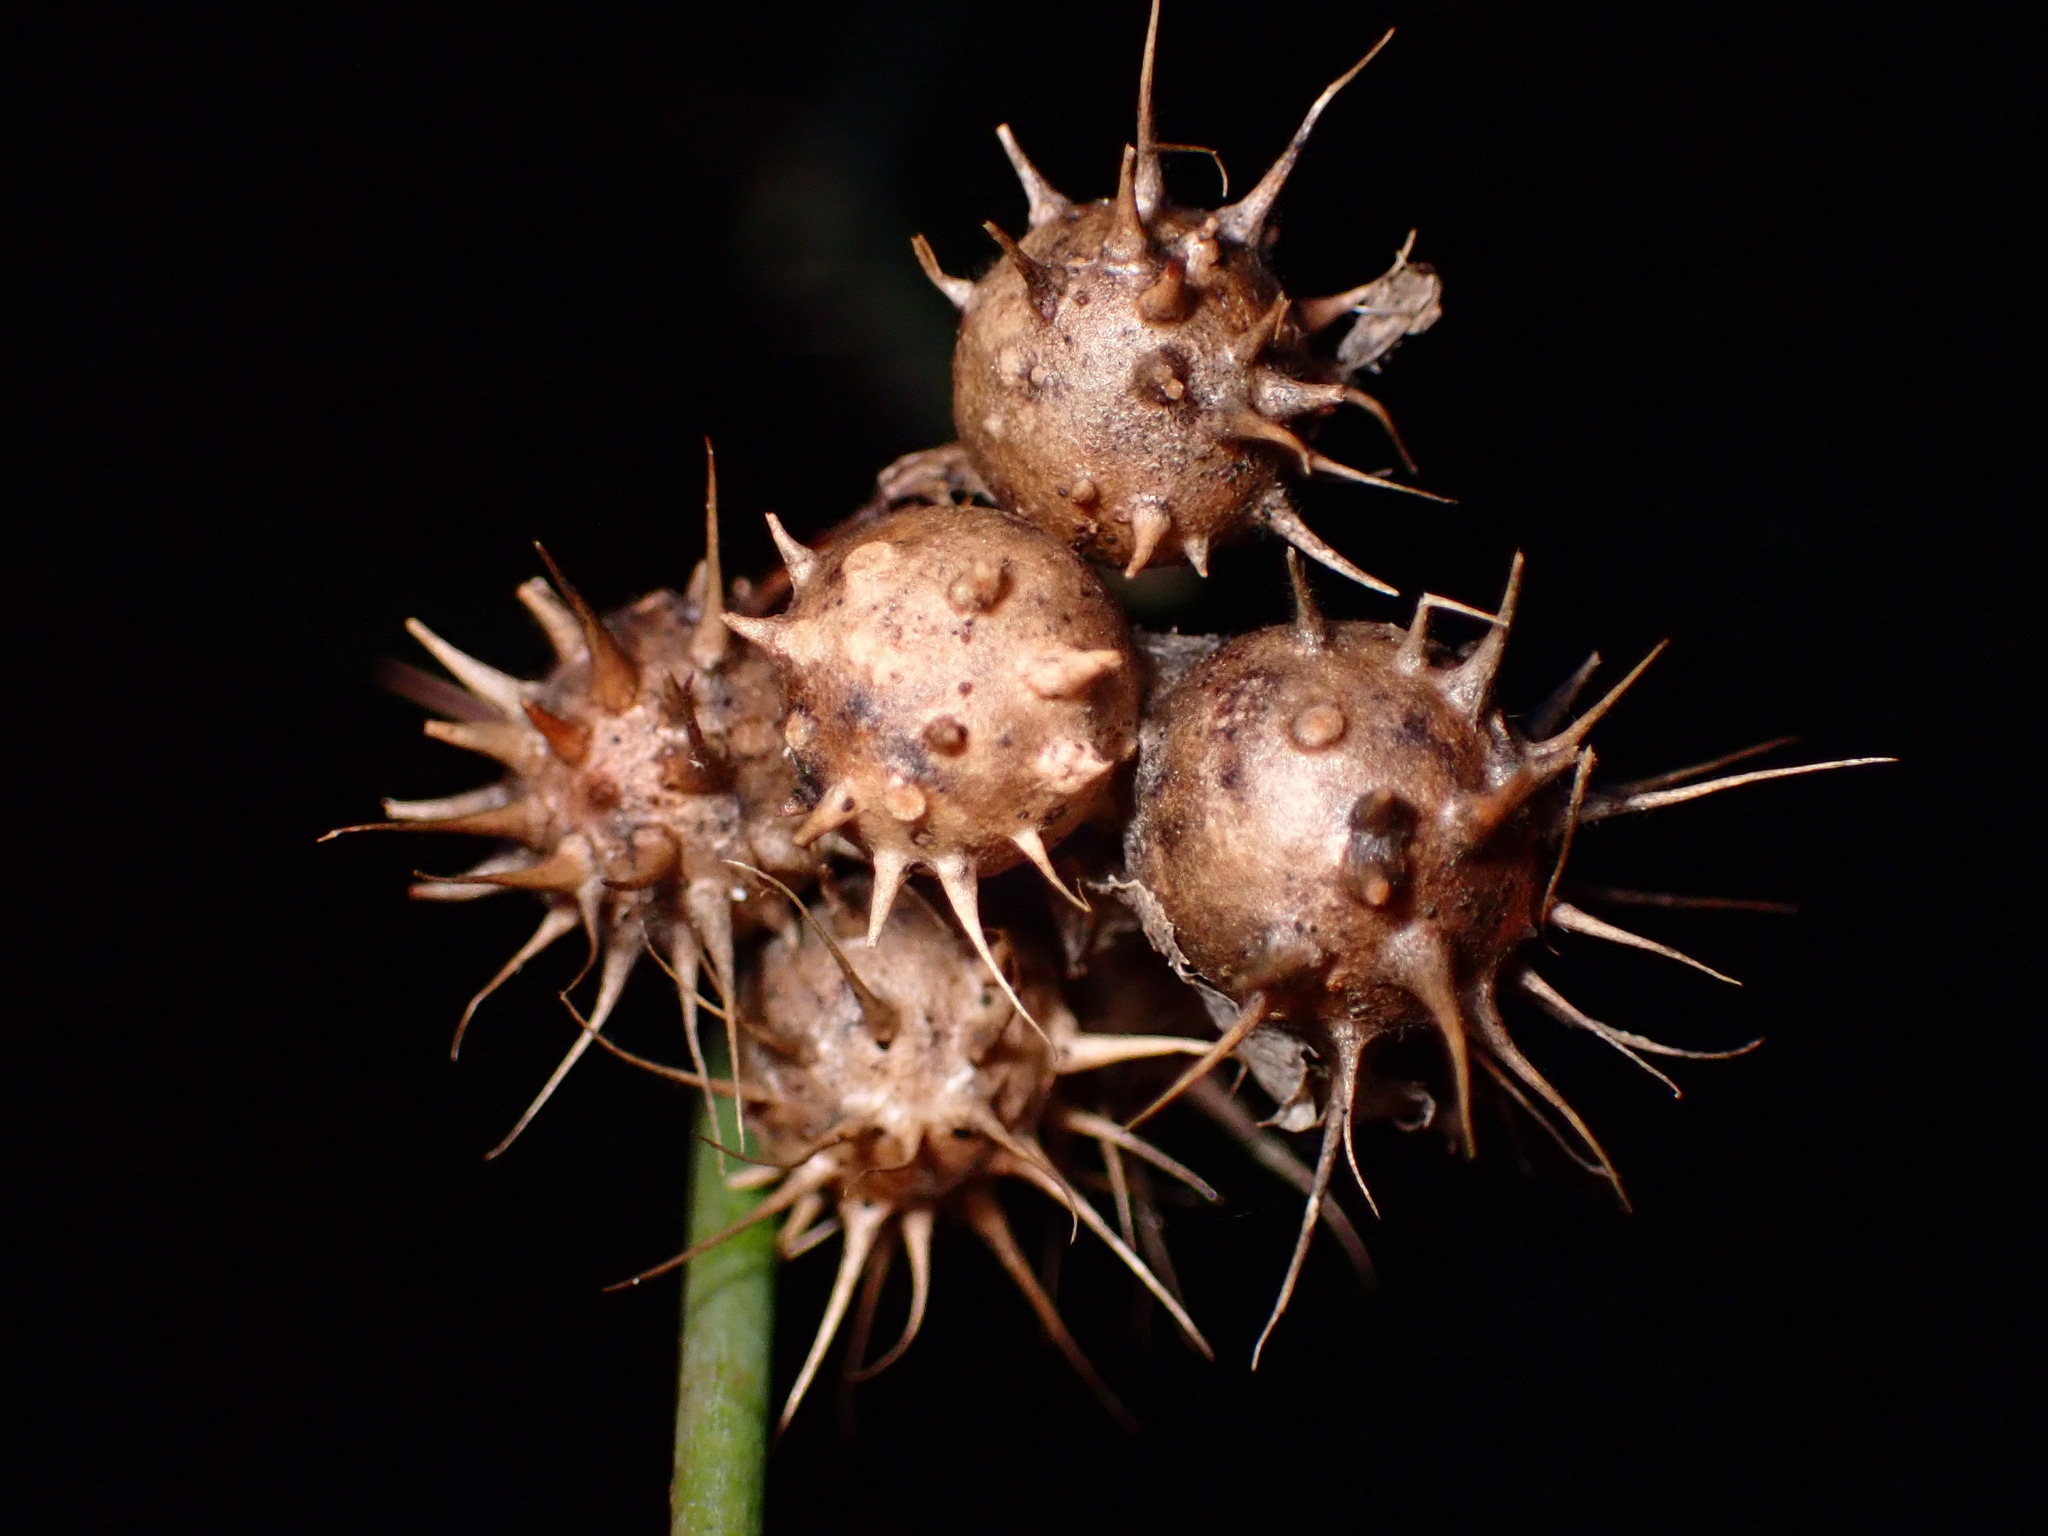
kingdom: Animalia
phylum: Arthropoda
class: Insecta
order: Hymenoptera
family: Cynipidae
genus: Diplolepis
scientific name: Diplolepis bicolor
